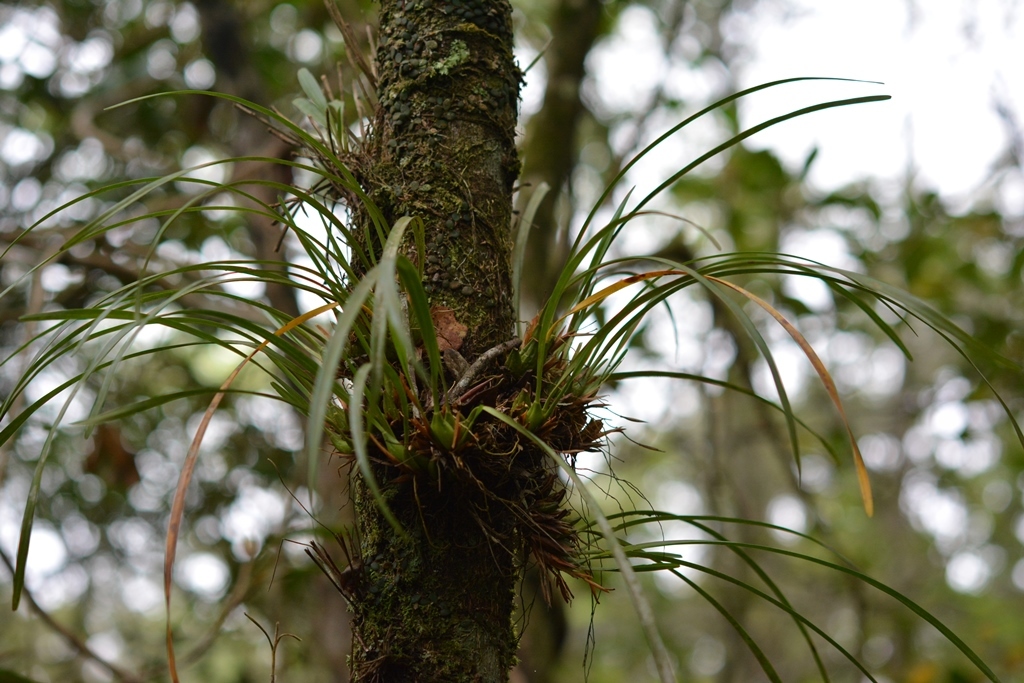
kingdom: Plantae
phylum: Tracheophyta
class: Liliopsida
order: Asparagales
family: Orchidaceae
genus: Maxillaria
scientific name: Maxillaria meleagris
